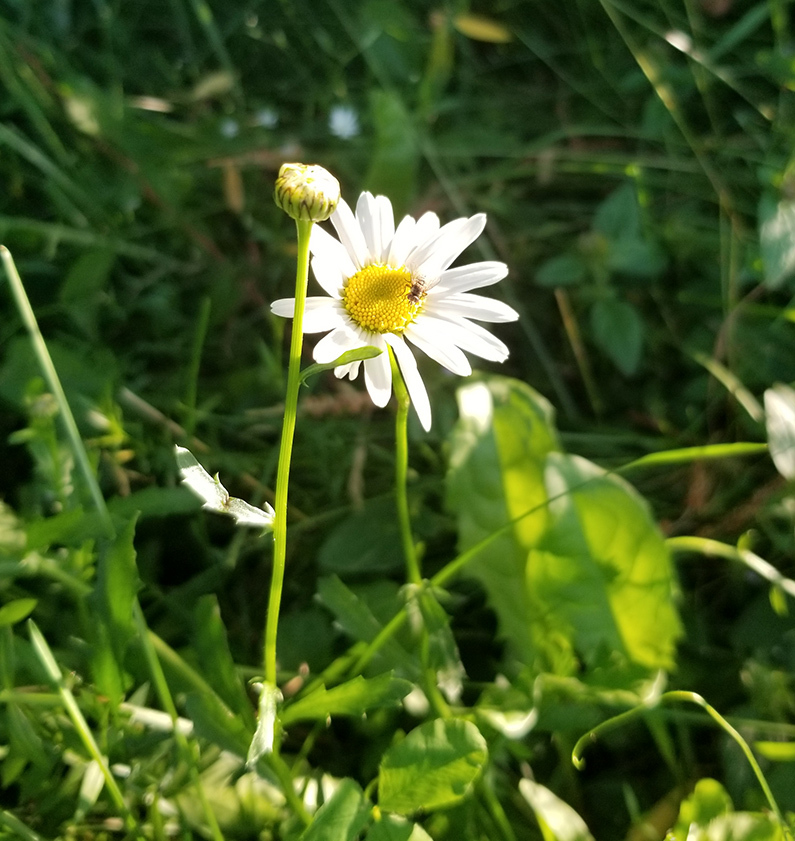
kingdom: Plantae
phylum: Tracheophyta
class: Magnoliopsida
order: Asterales
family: Asteraceae
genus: Leucanthemum
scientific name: Leucanthemum vulgare
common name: Oxeye daisy
